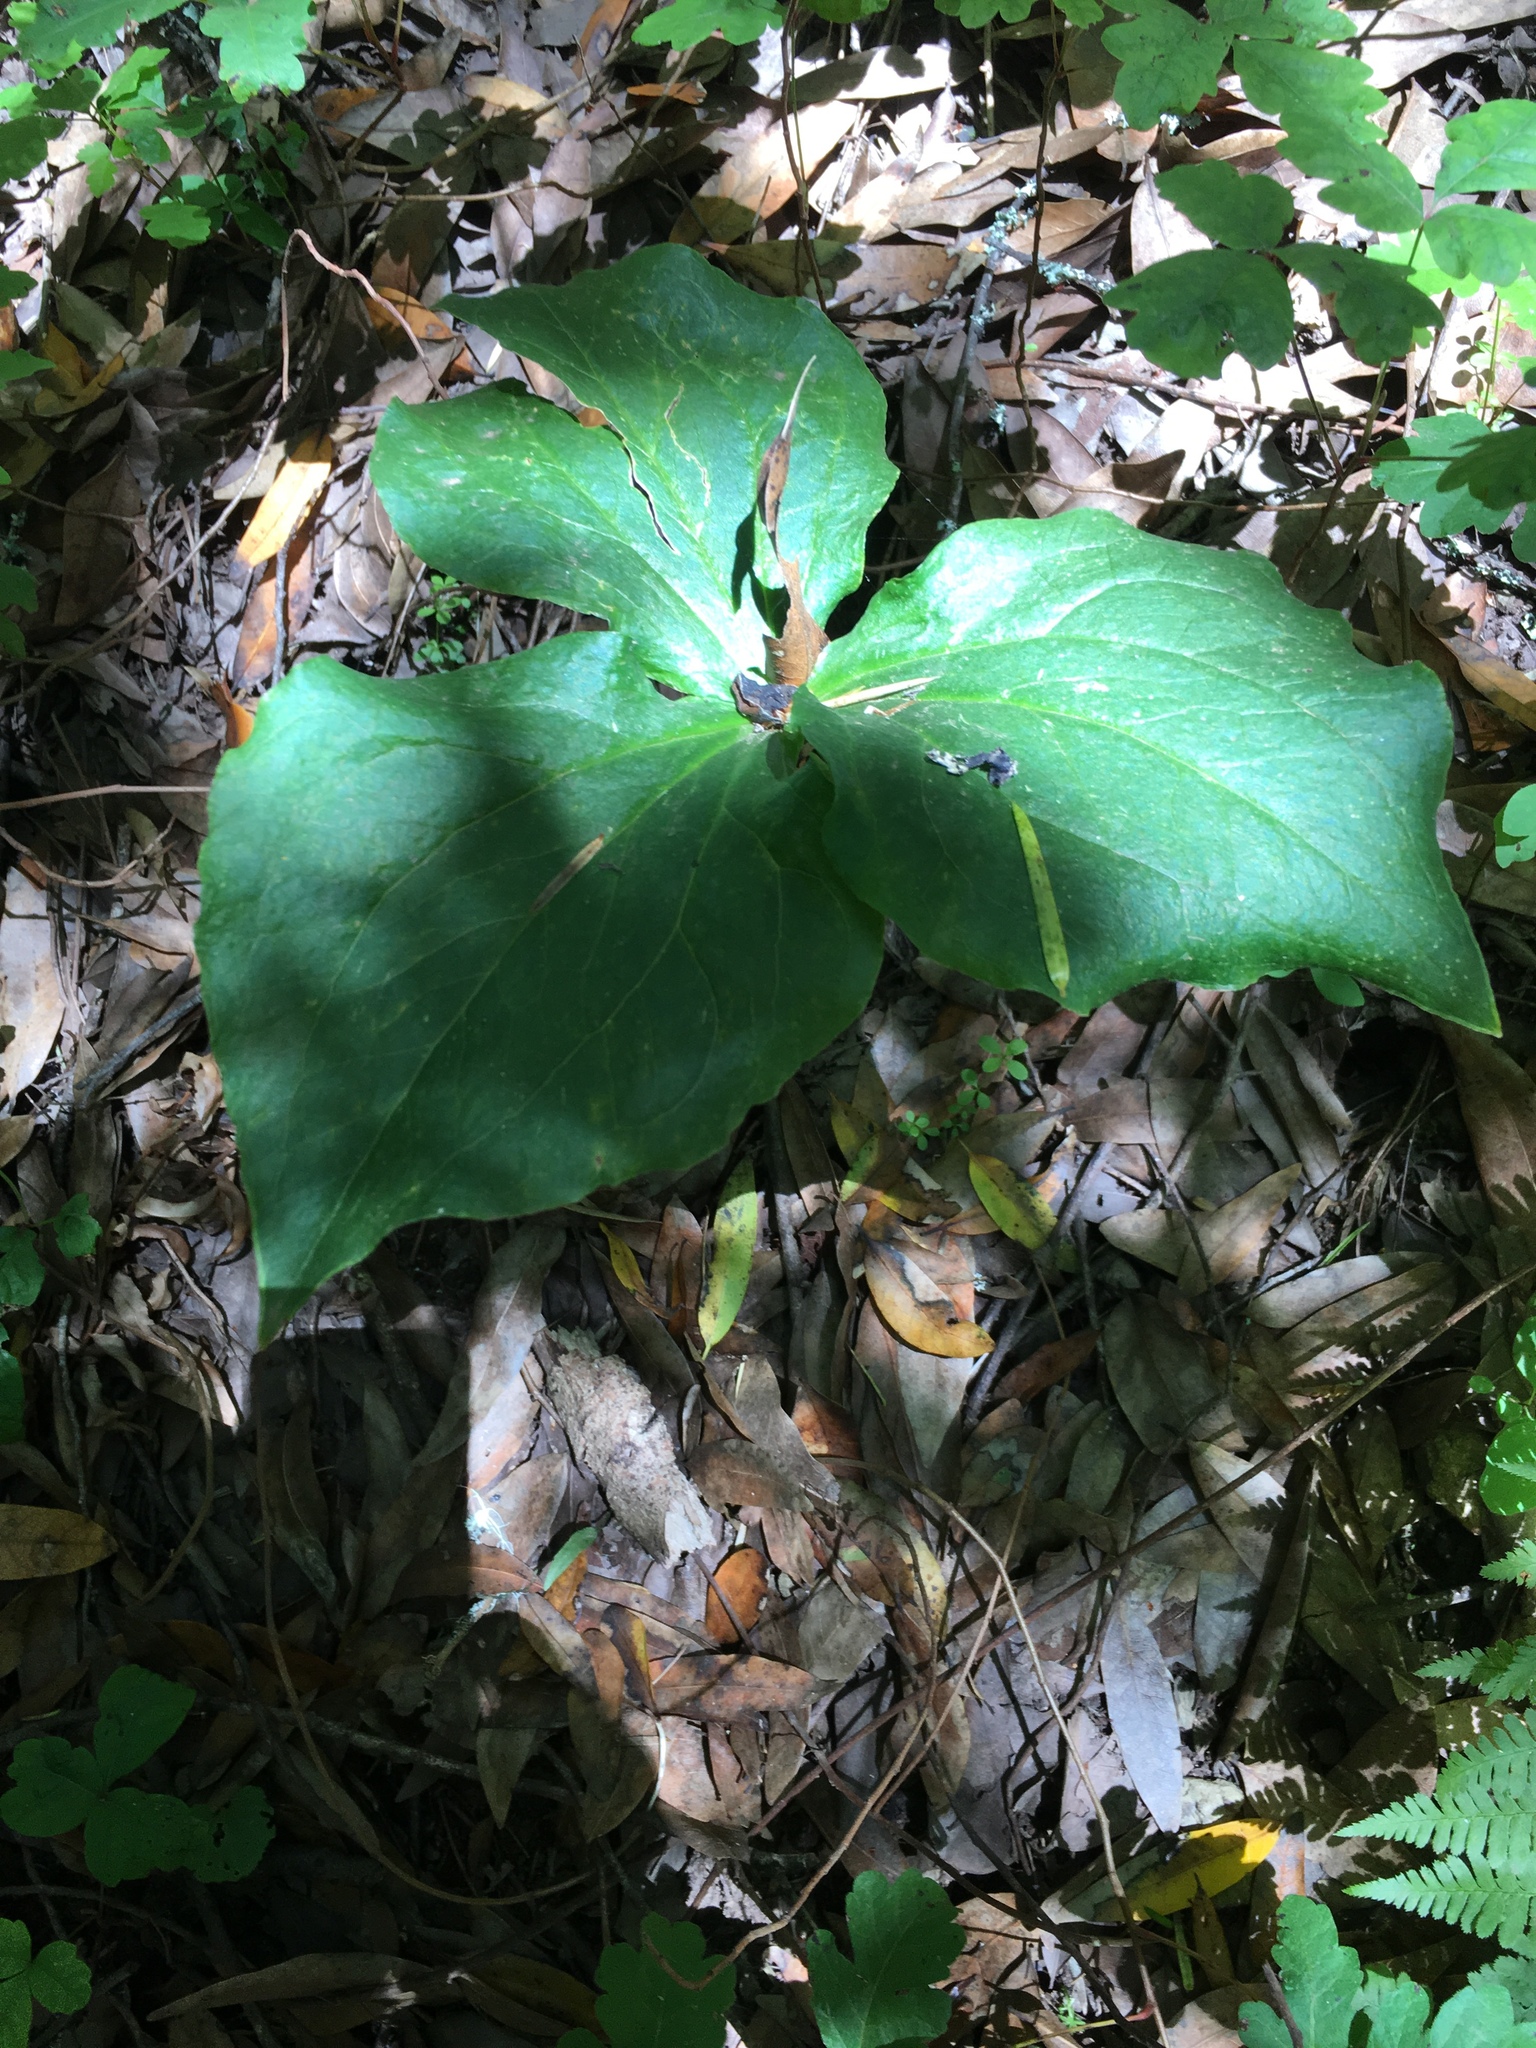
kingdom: Plantae
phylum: Tracheophyta
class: Liliopsida
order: Liliales
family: Melanthiaceae
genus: Trillium
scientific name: Trillium ovatum
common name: Pacific trillium
